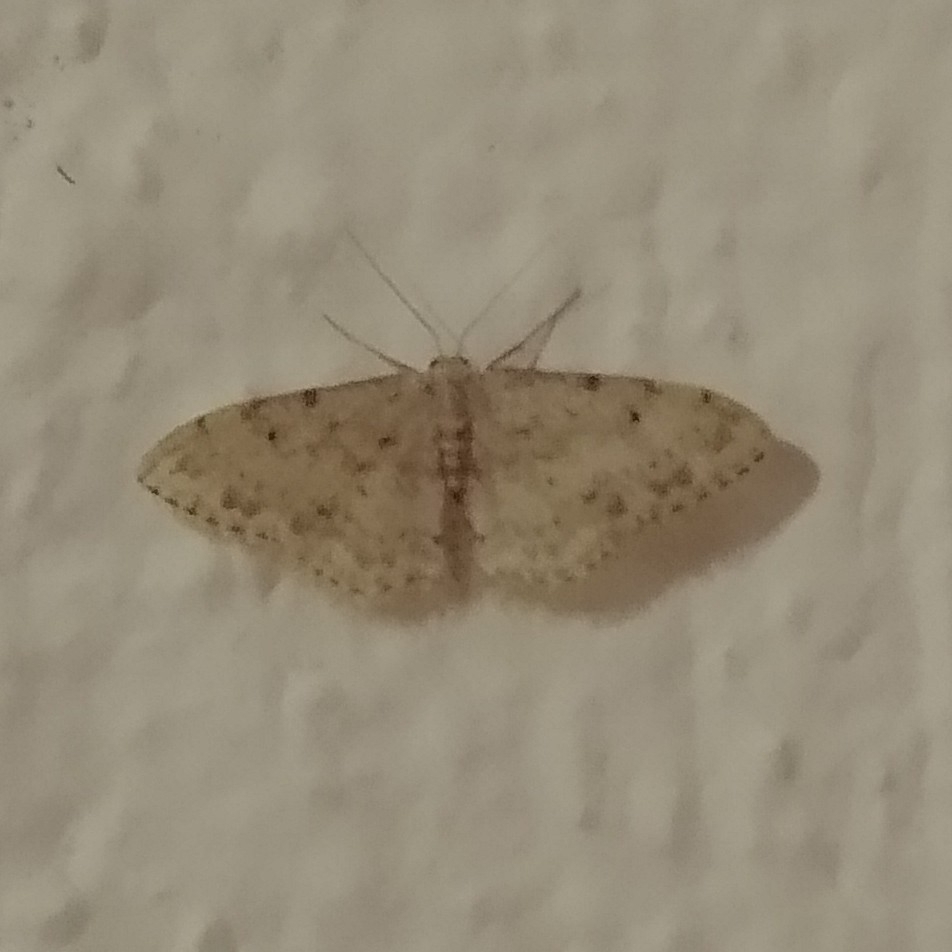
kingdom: Animalia
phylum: Arthropoda
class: Insecta
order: Lepidoptera
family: Geometridae
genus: Idaea
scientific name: Idaea camparia
